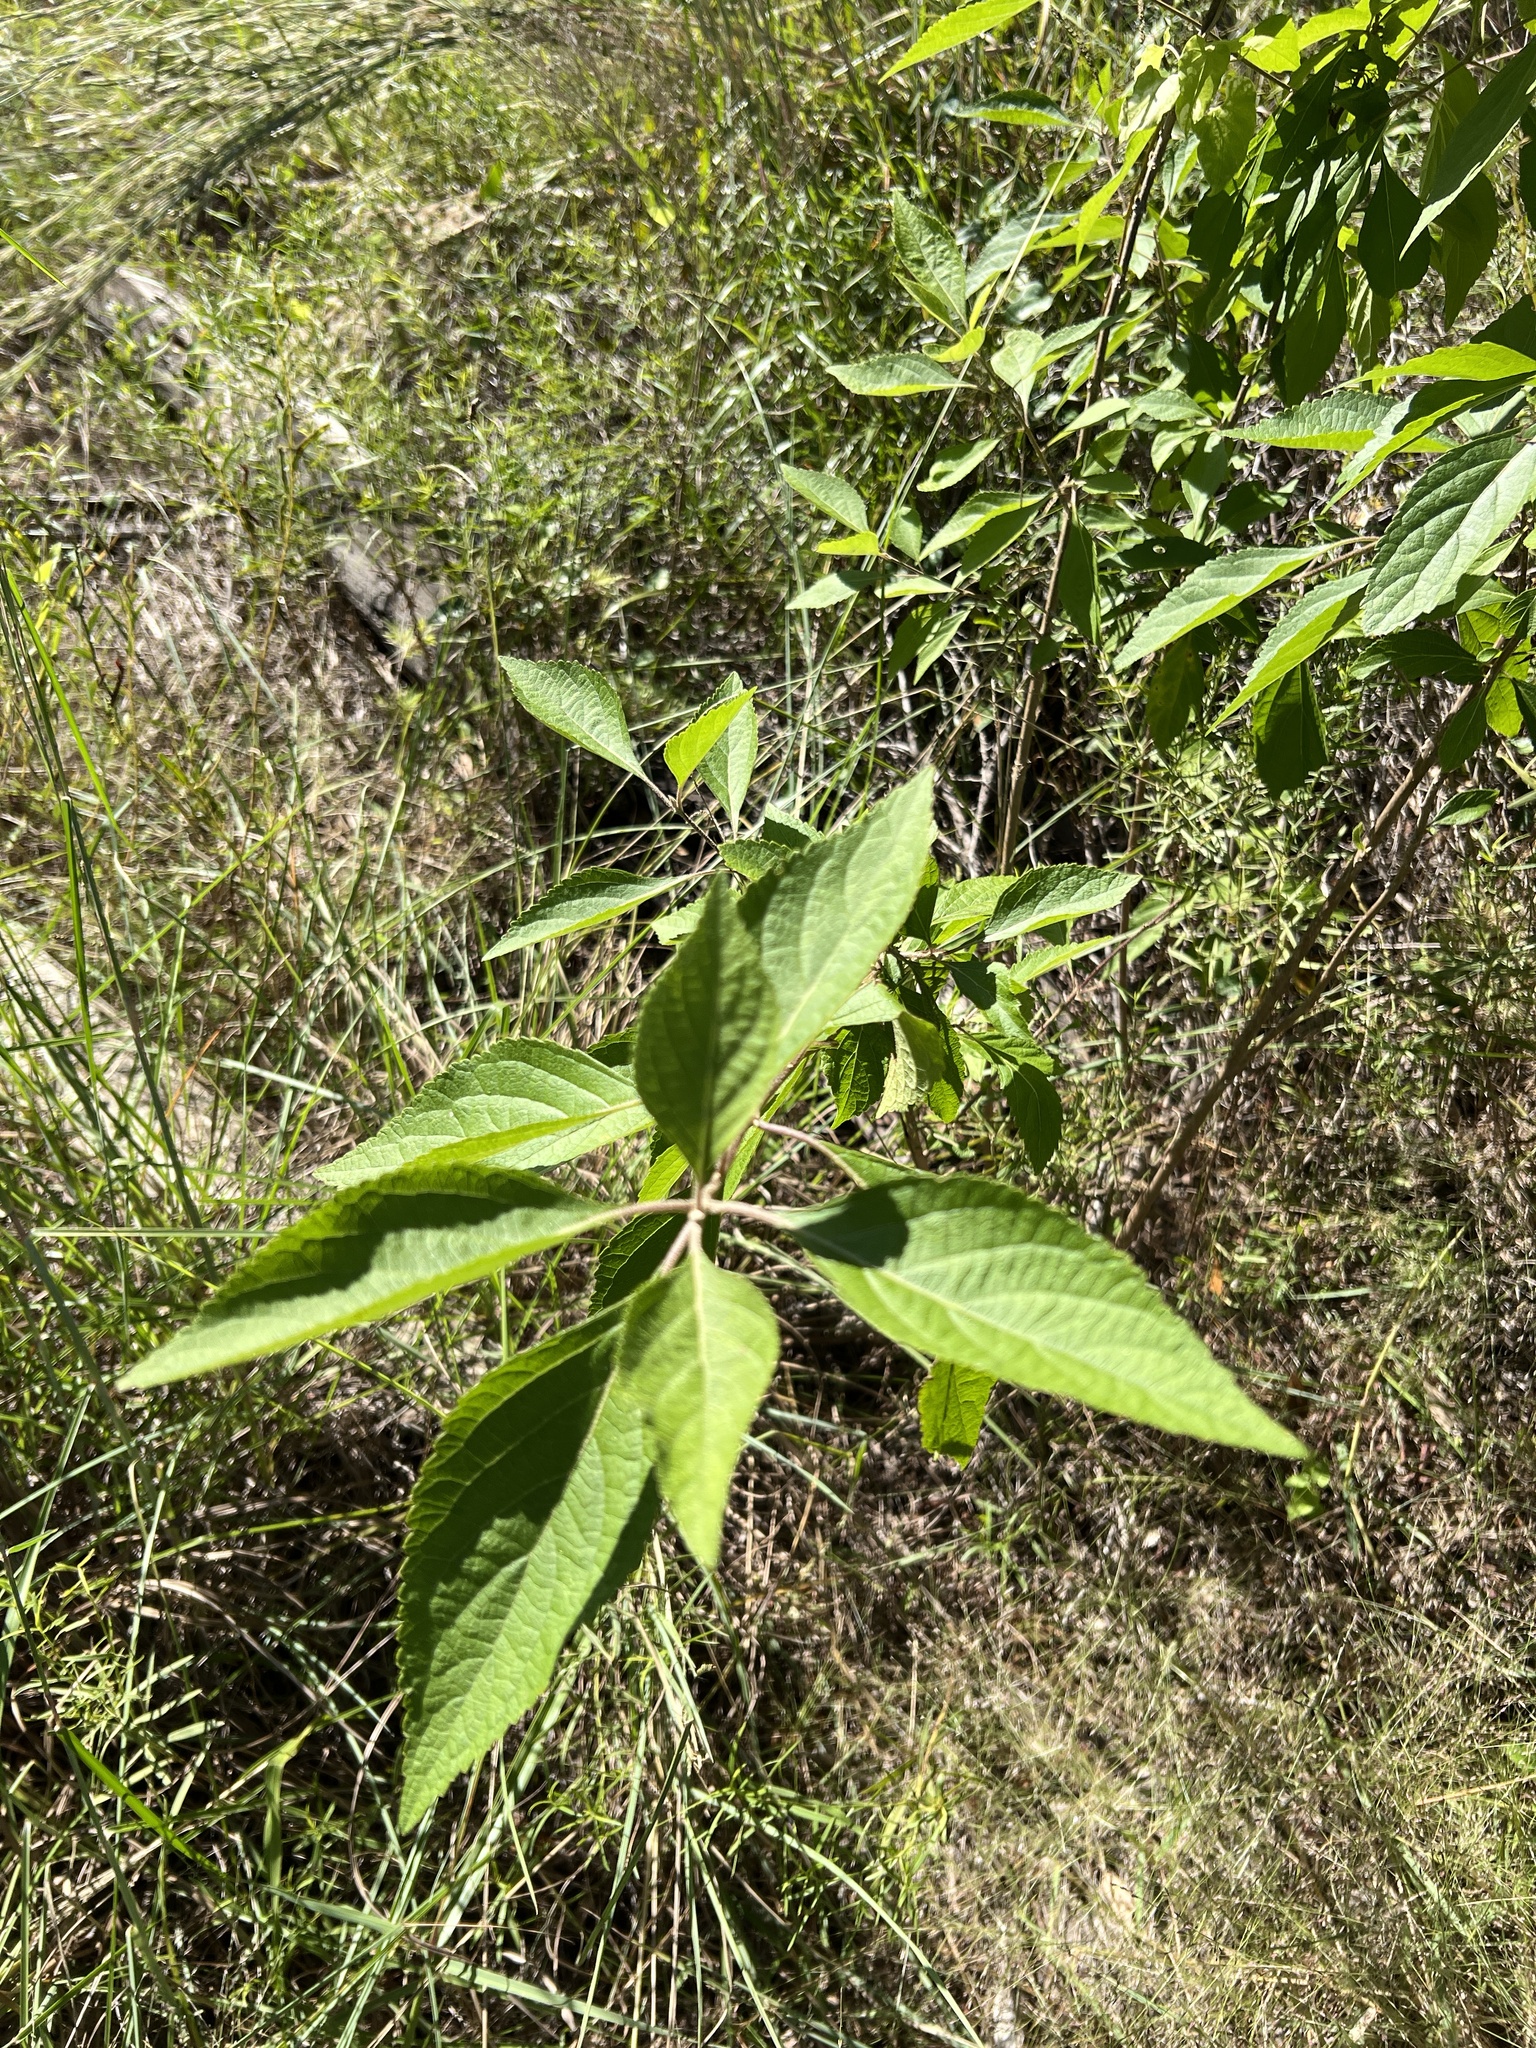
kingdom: Plantae
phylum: Tracheophyta
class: Magnoliopsida
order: Lamiales
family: Lamiaceae
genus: Callicarpa
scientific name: Callicarpa americana
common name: American beautyberry
